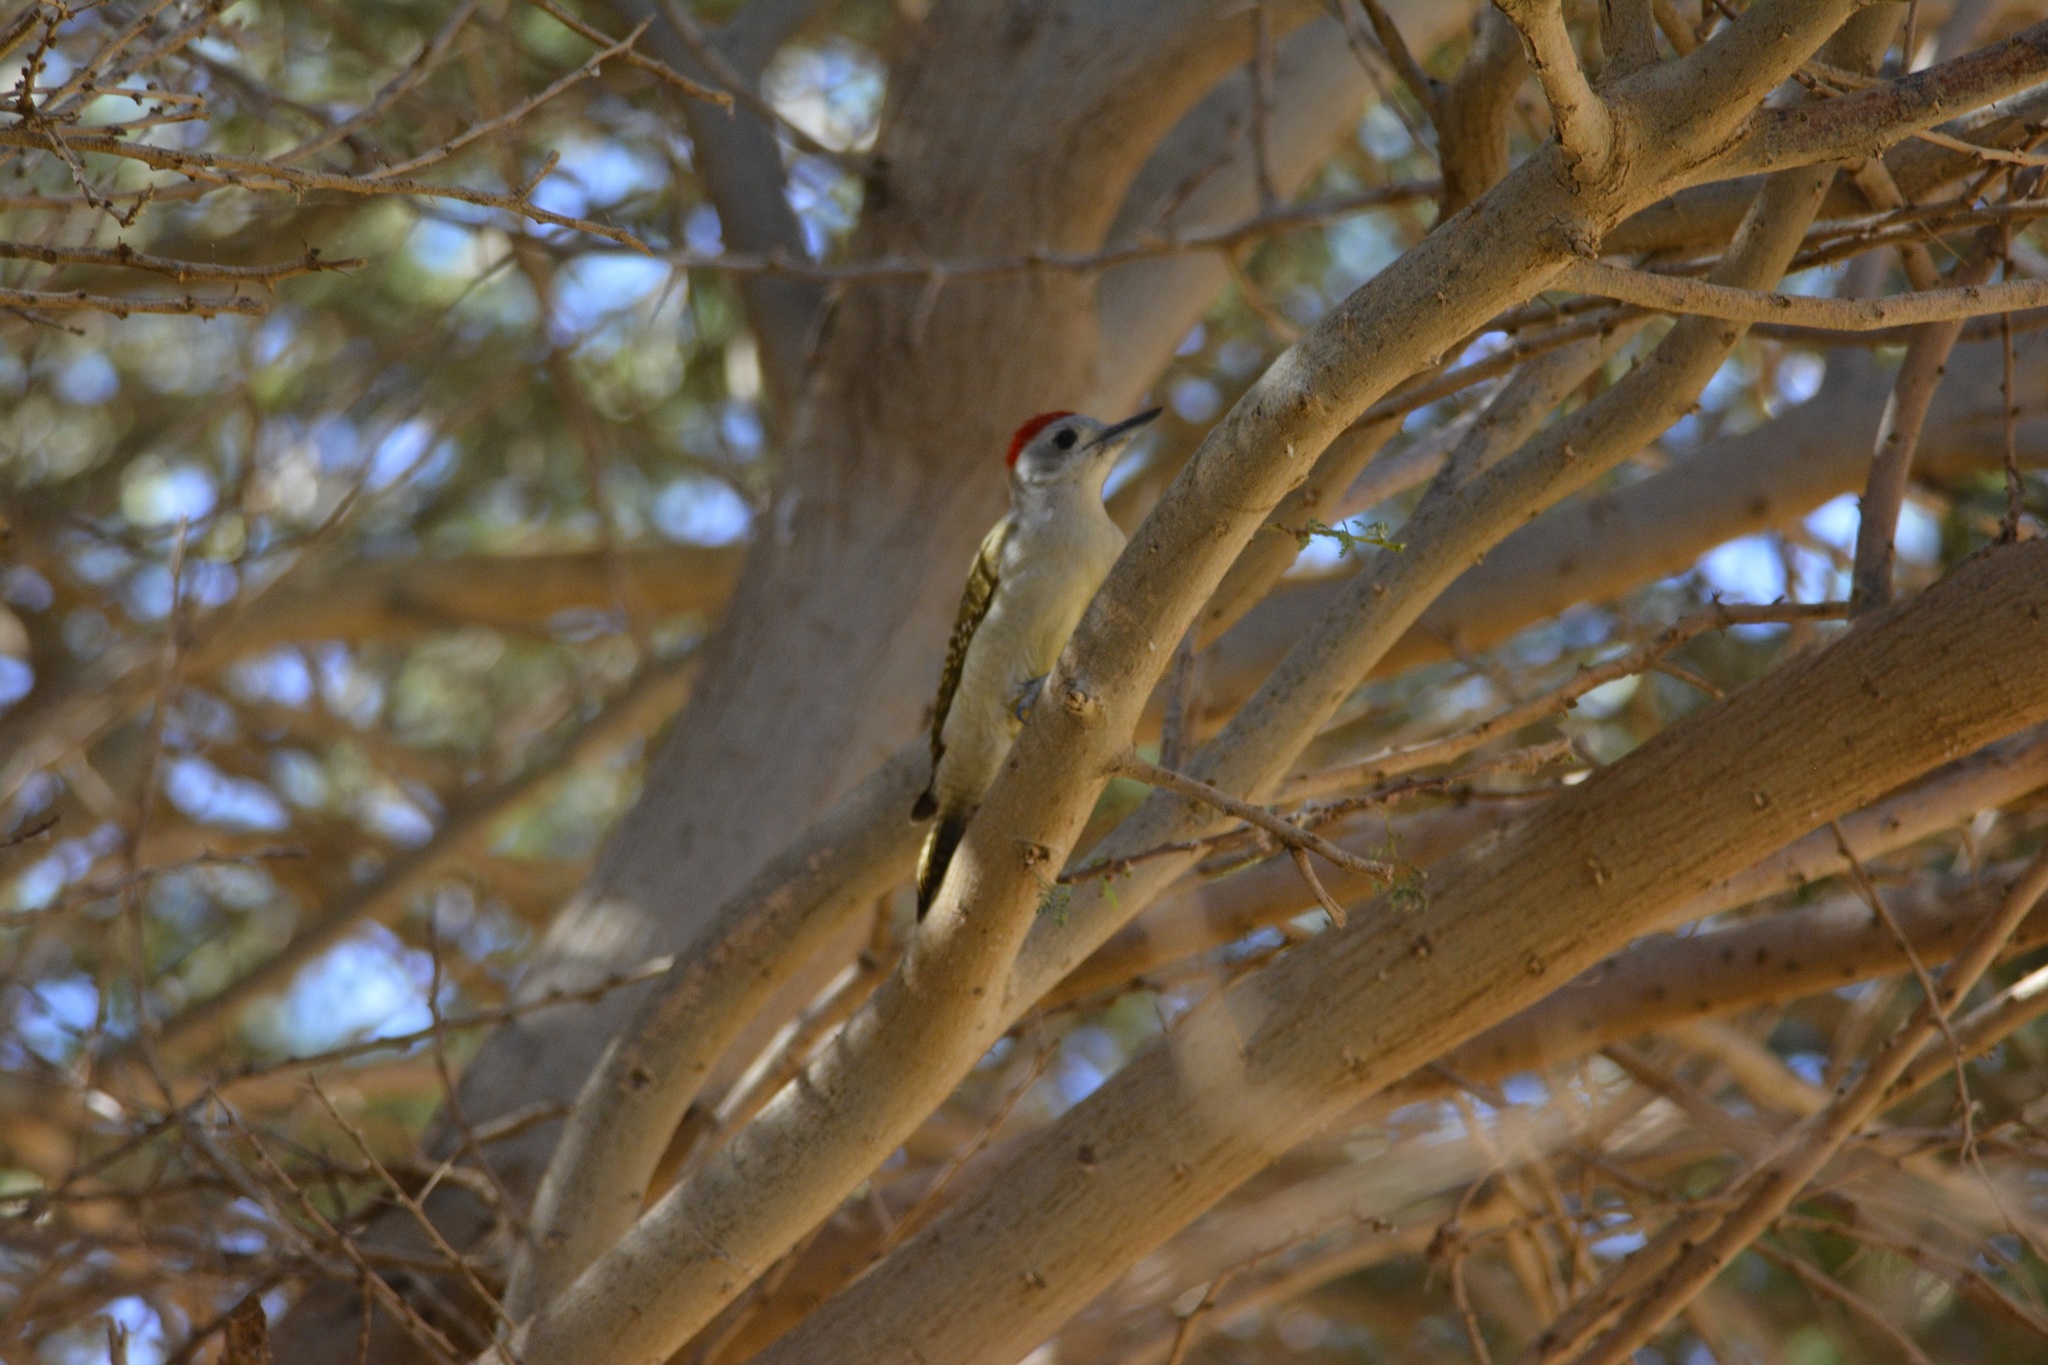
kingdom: Animalia
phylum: Chordata
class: Aves
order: Piciformes
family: Picidae
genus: Dendropicos
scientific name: Dendropicos goertae
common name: African grey woodpecker
